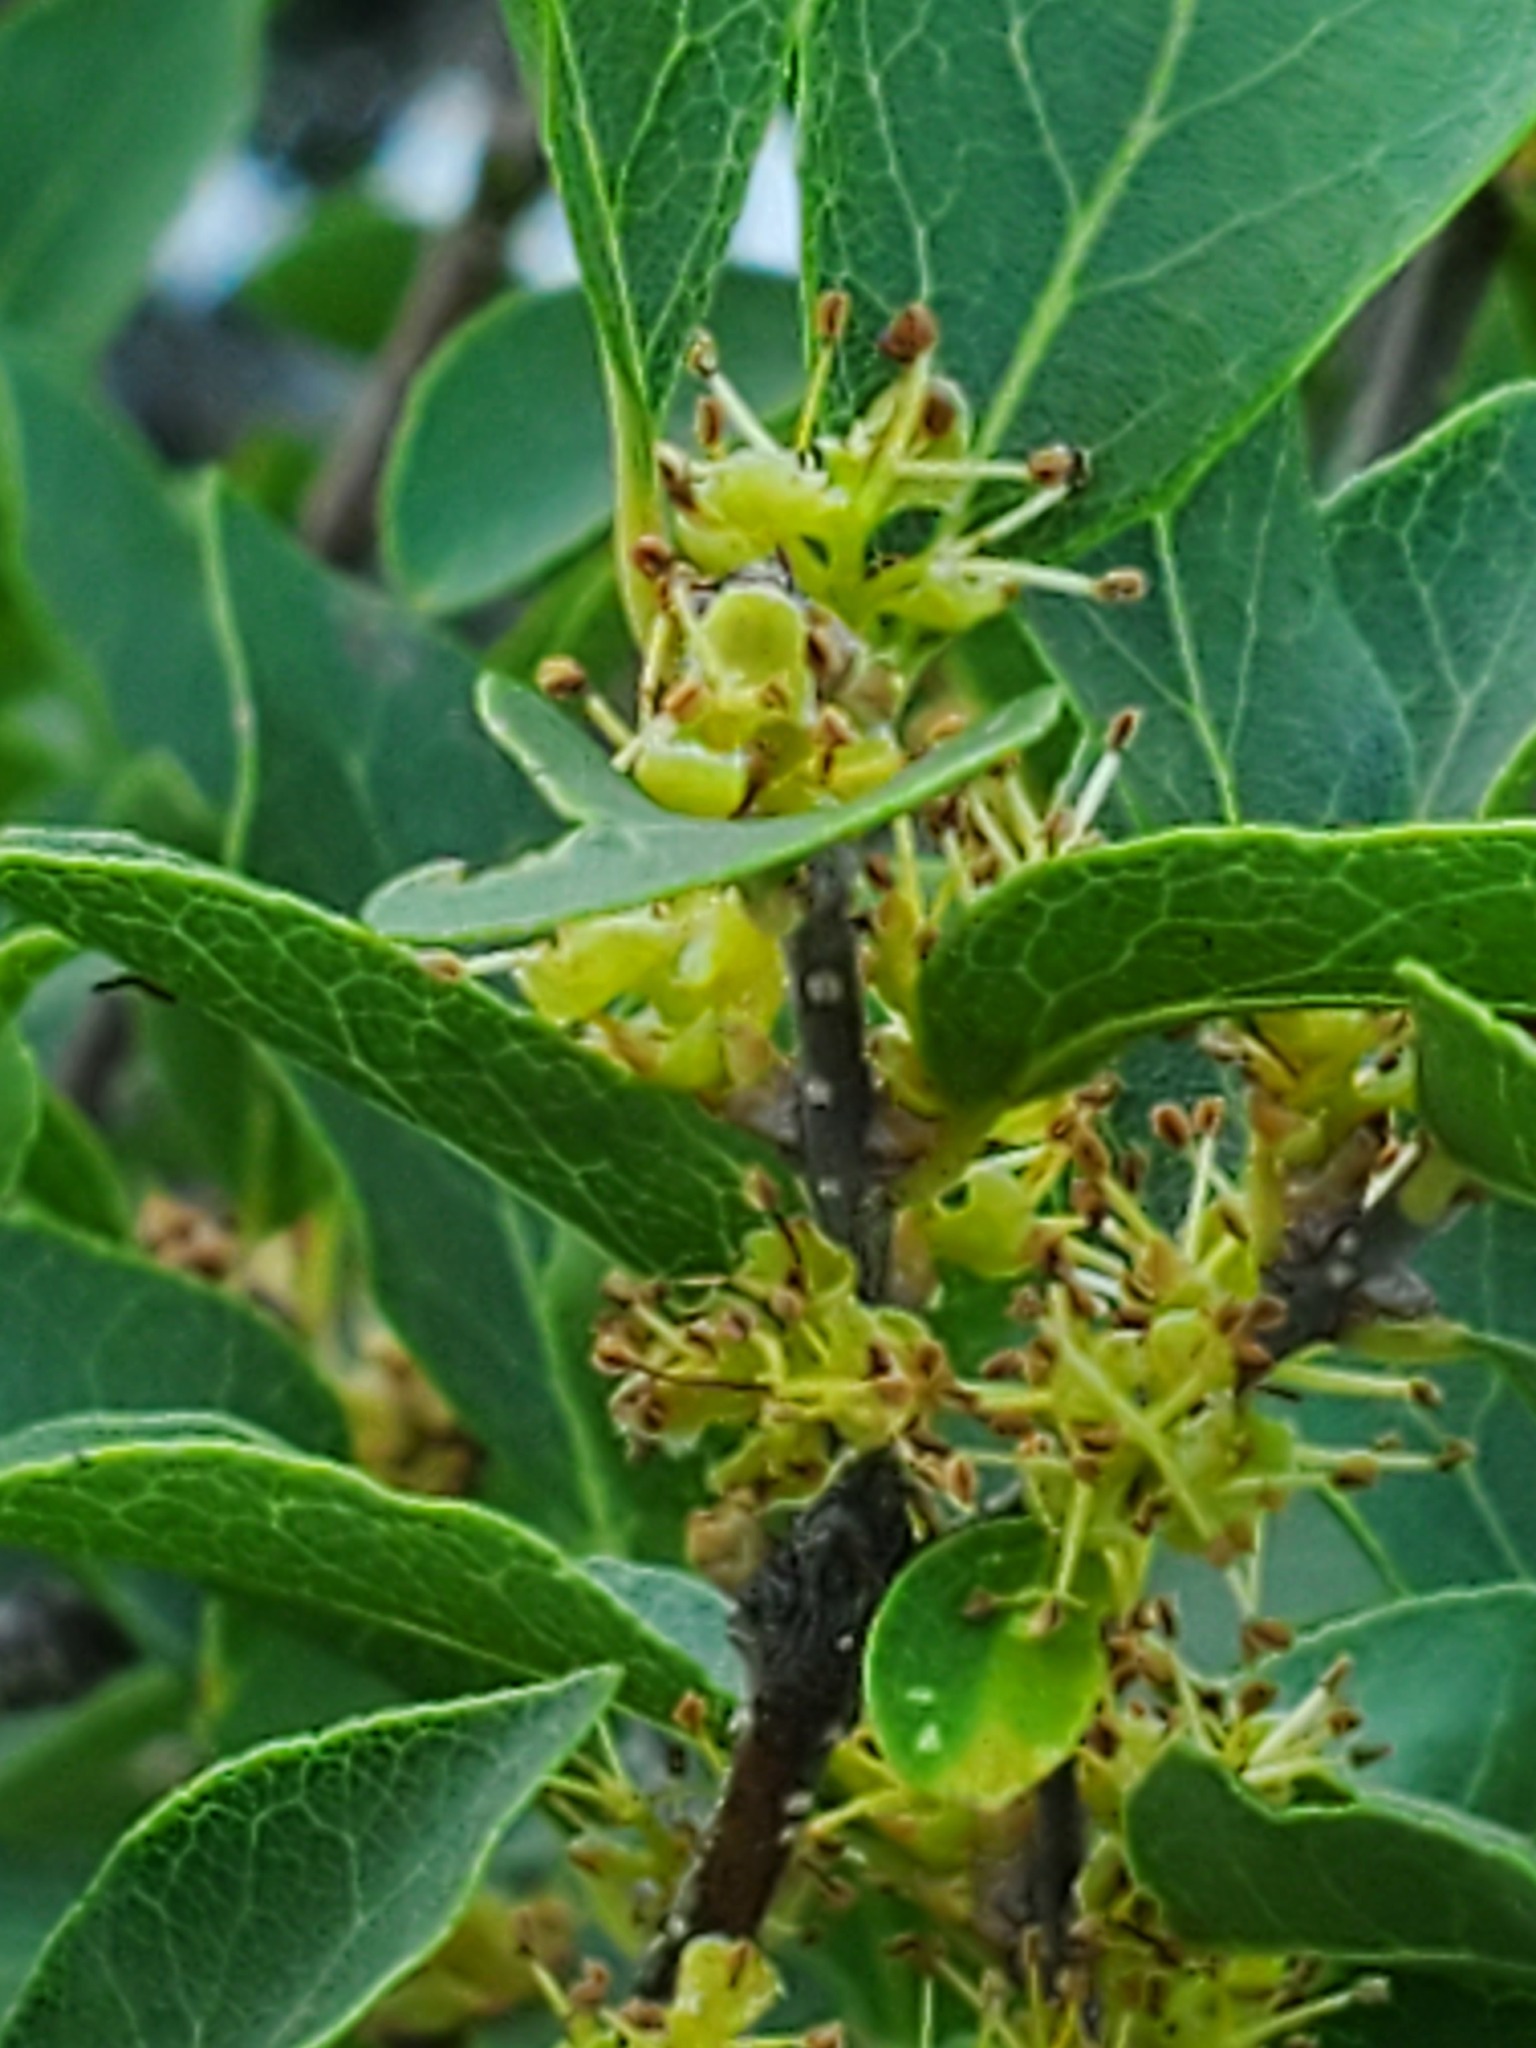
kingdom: Plantae
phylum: Tracheophyta
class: Magnoliopsida
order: Lamiales
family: Oleaceae
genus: Forestiera
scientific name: Forestiera reticulata
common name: Netleaf swamp-privet
